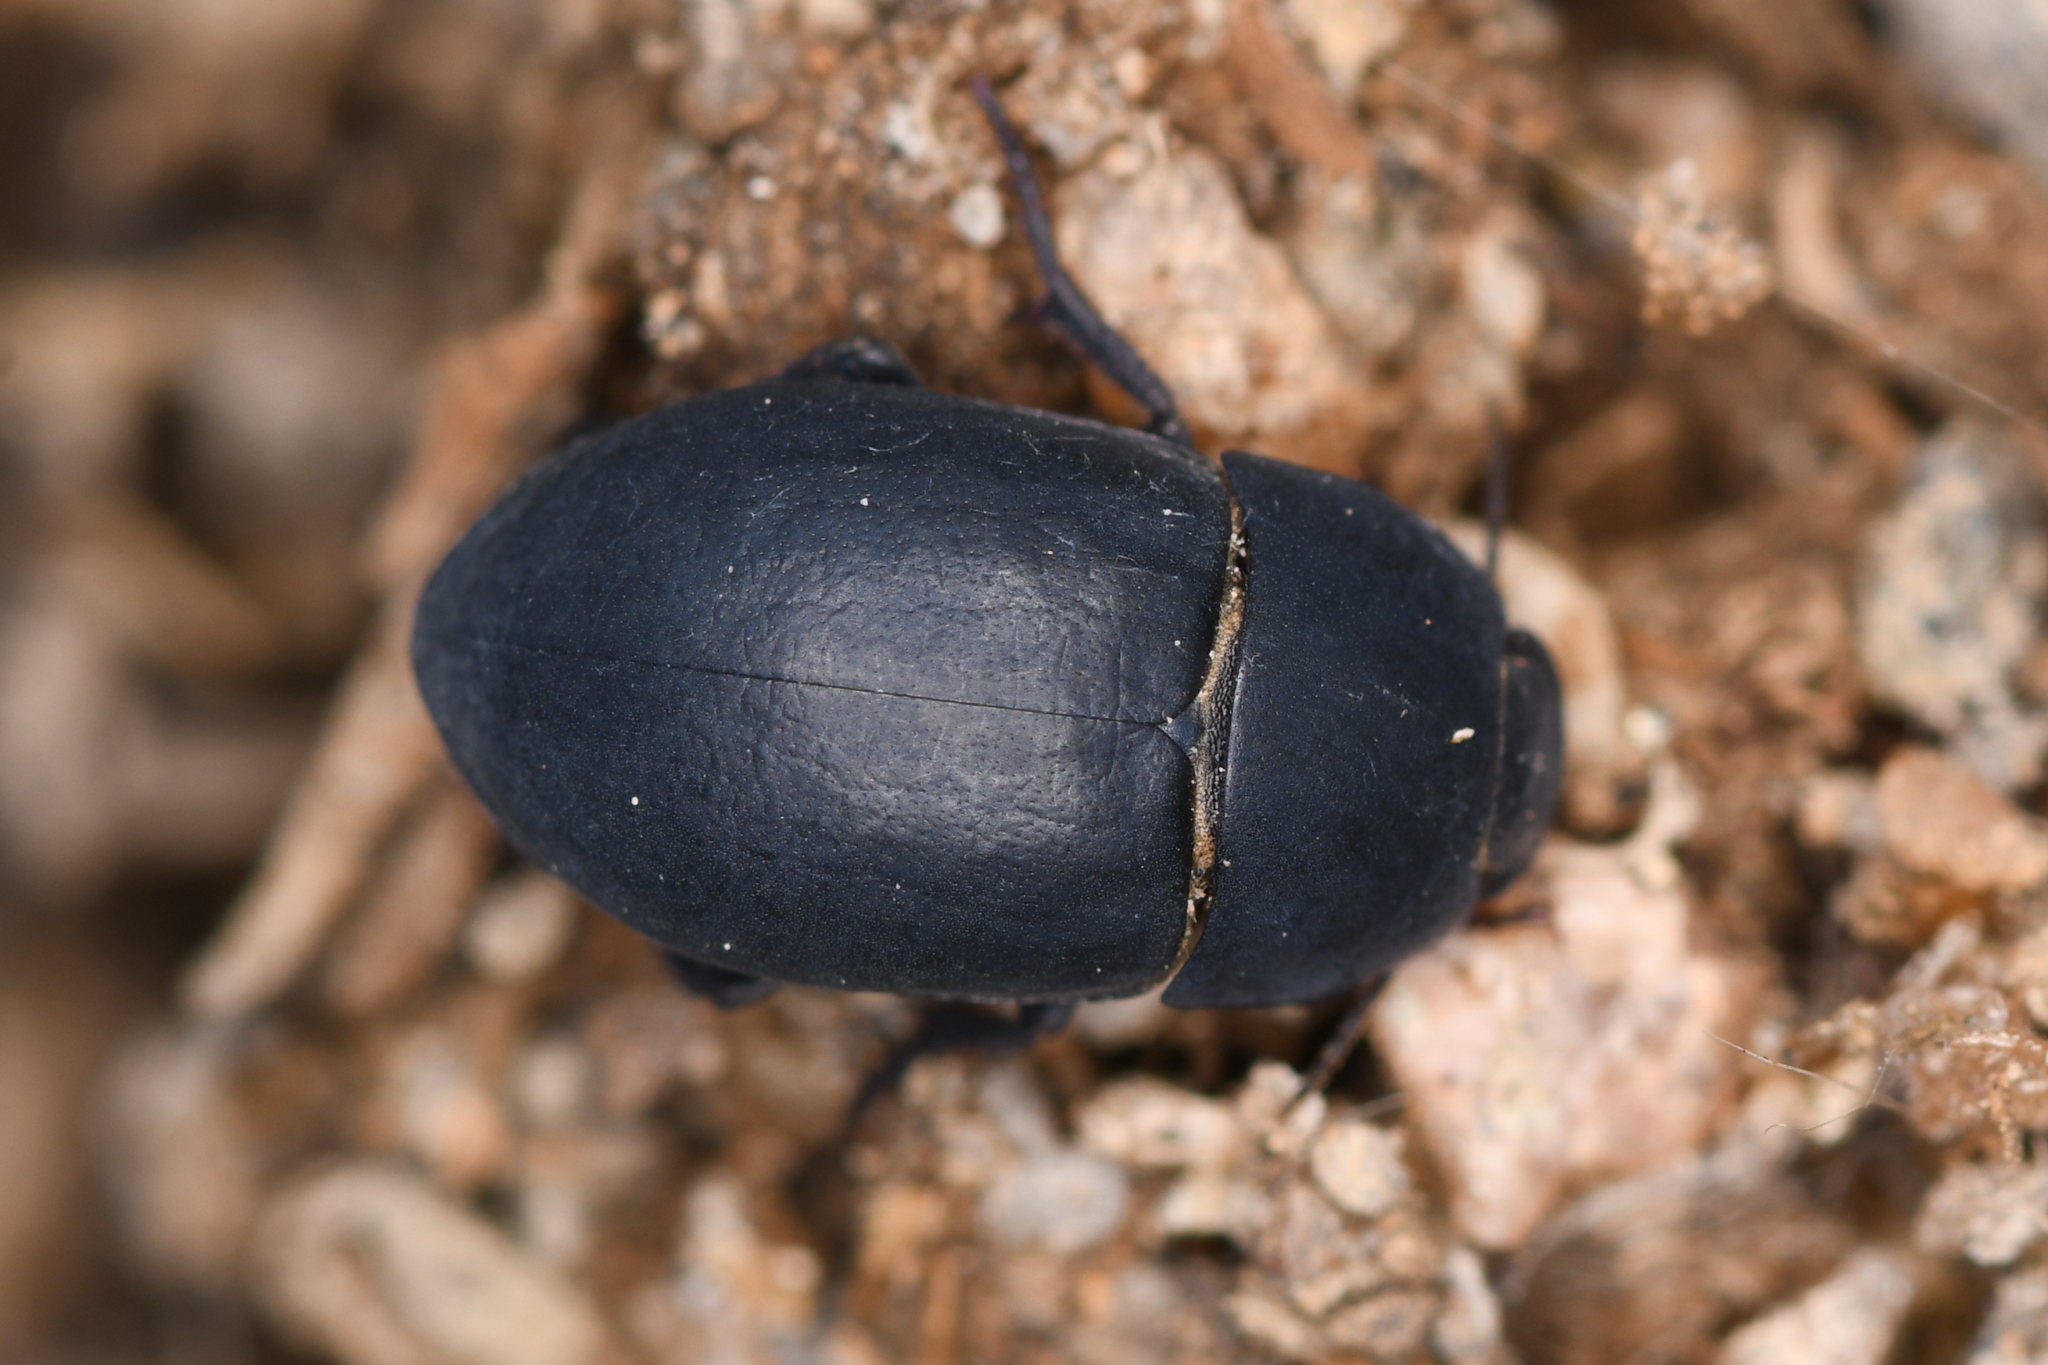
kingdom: Animalia
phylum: Arthropoda
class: Insecta
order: Coleoptera
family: Tenebrionidae
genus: Coniontis
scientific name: Coniontis
